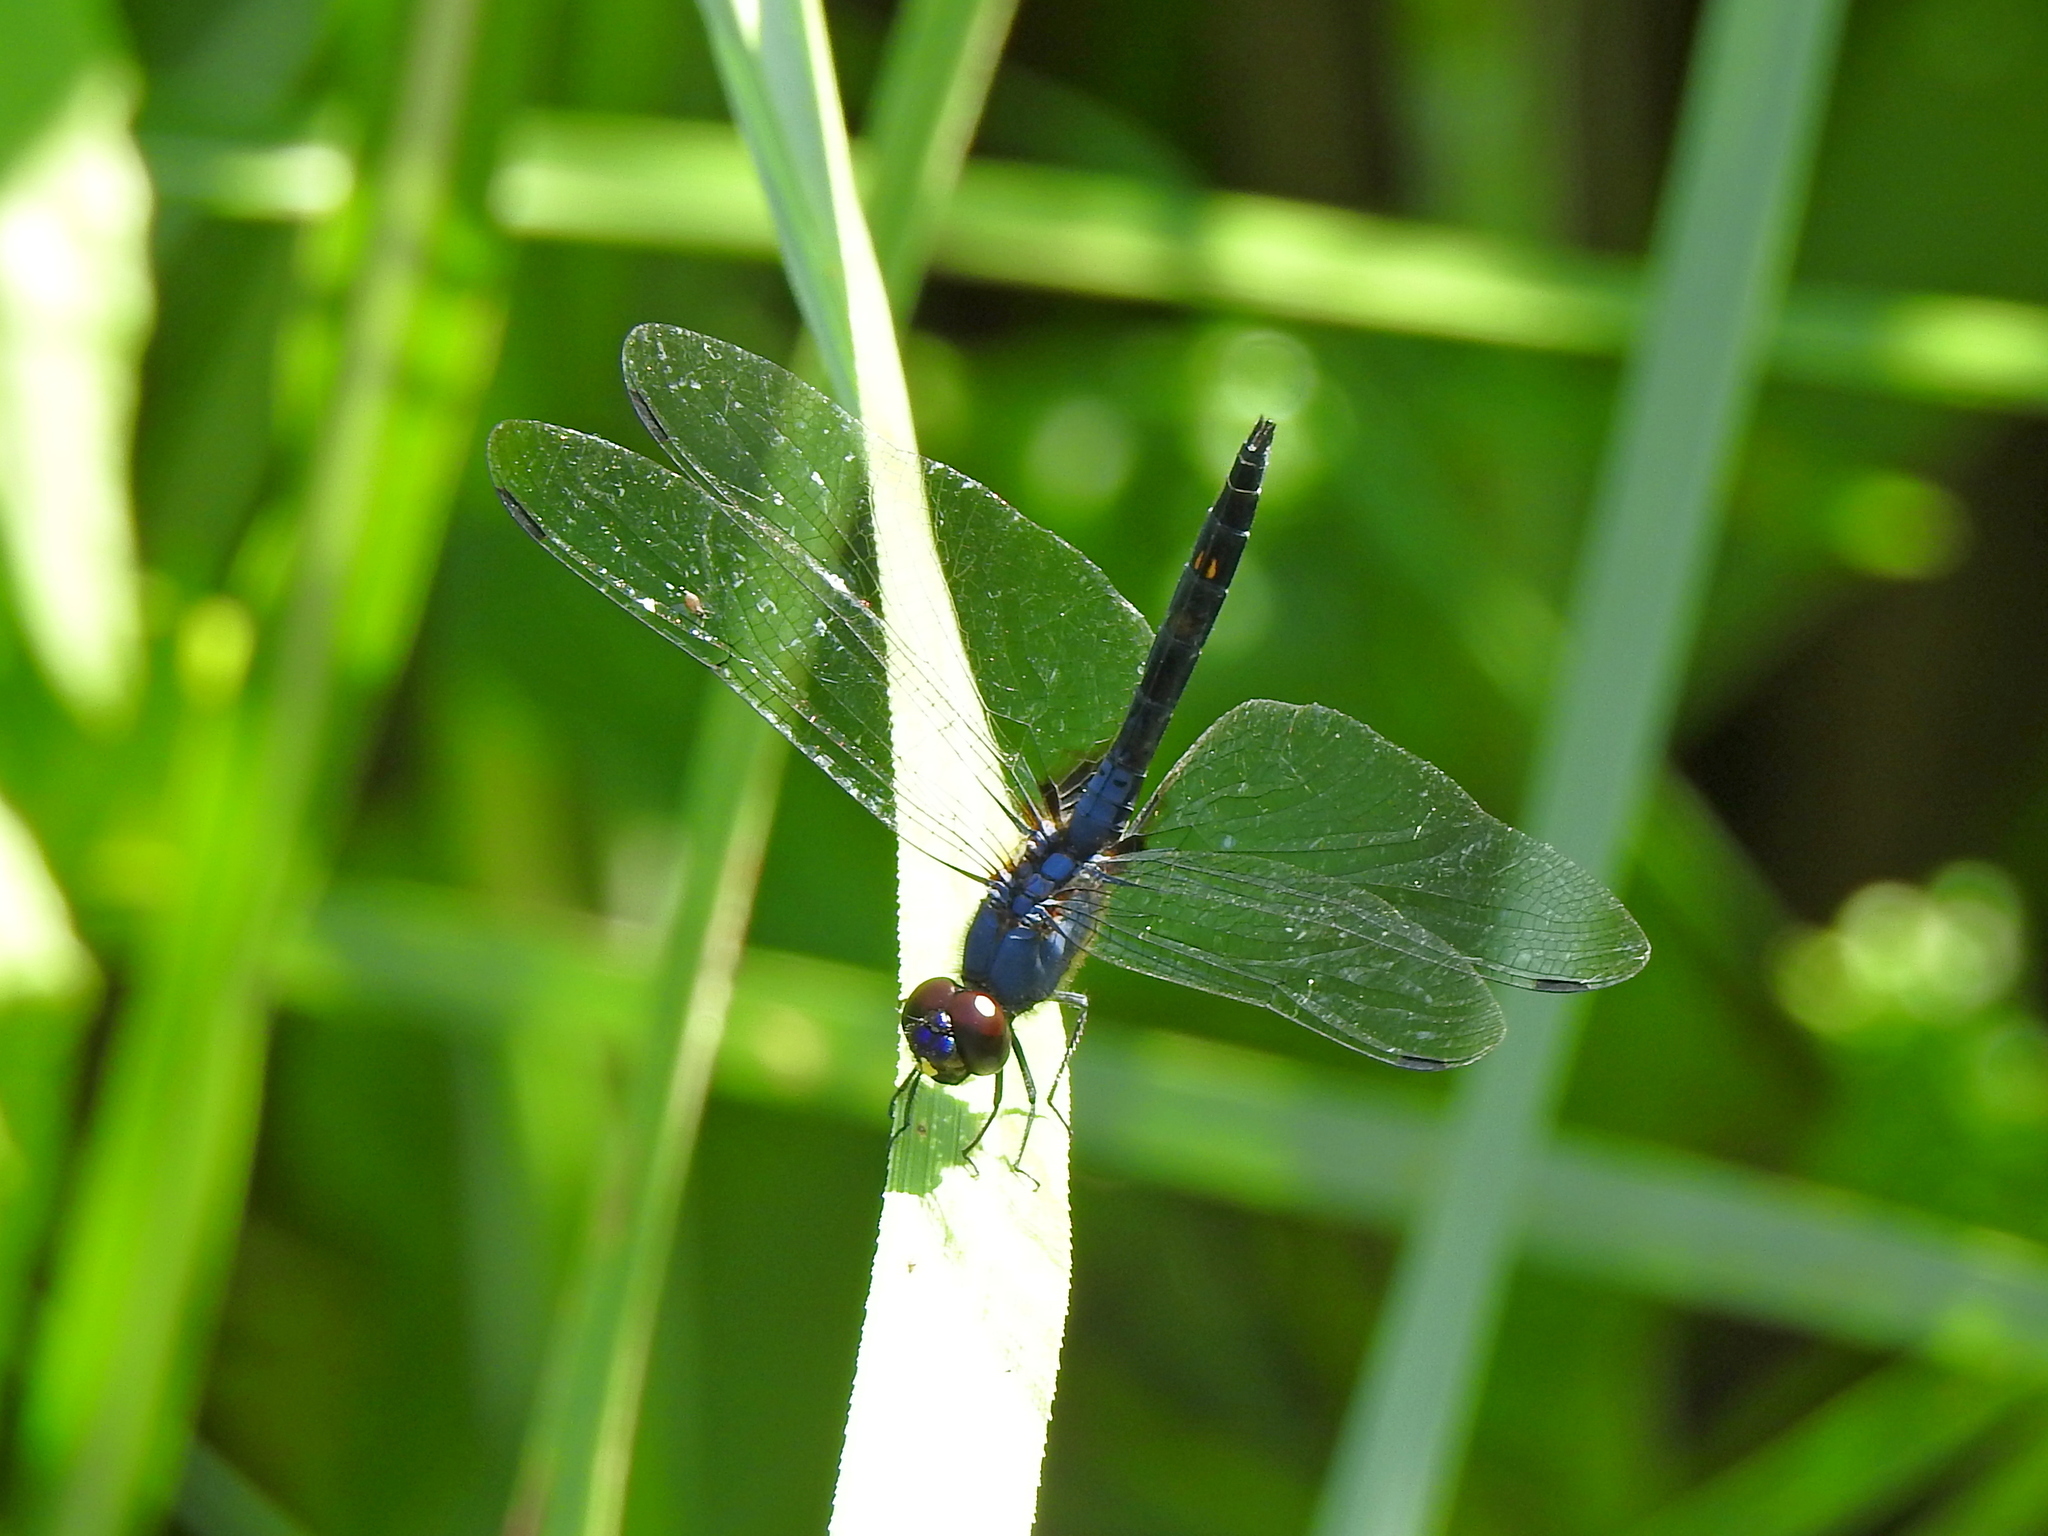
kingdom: Animalia
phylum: Arthropoda
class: Insecta
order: Odonata
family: Libellulidae
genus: Trithemis
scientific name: Trithemis festiva
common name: Indigo dropwing
